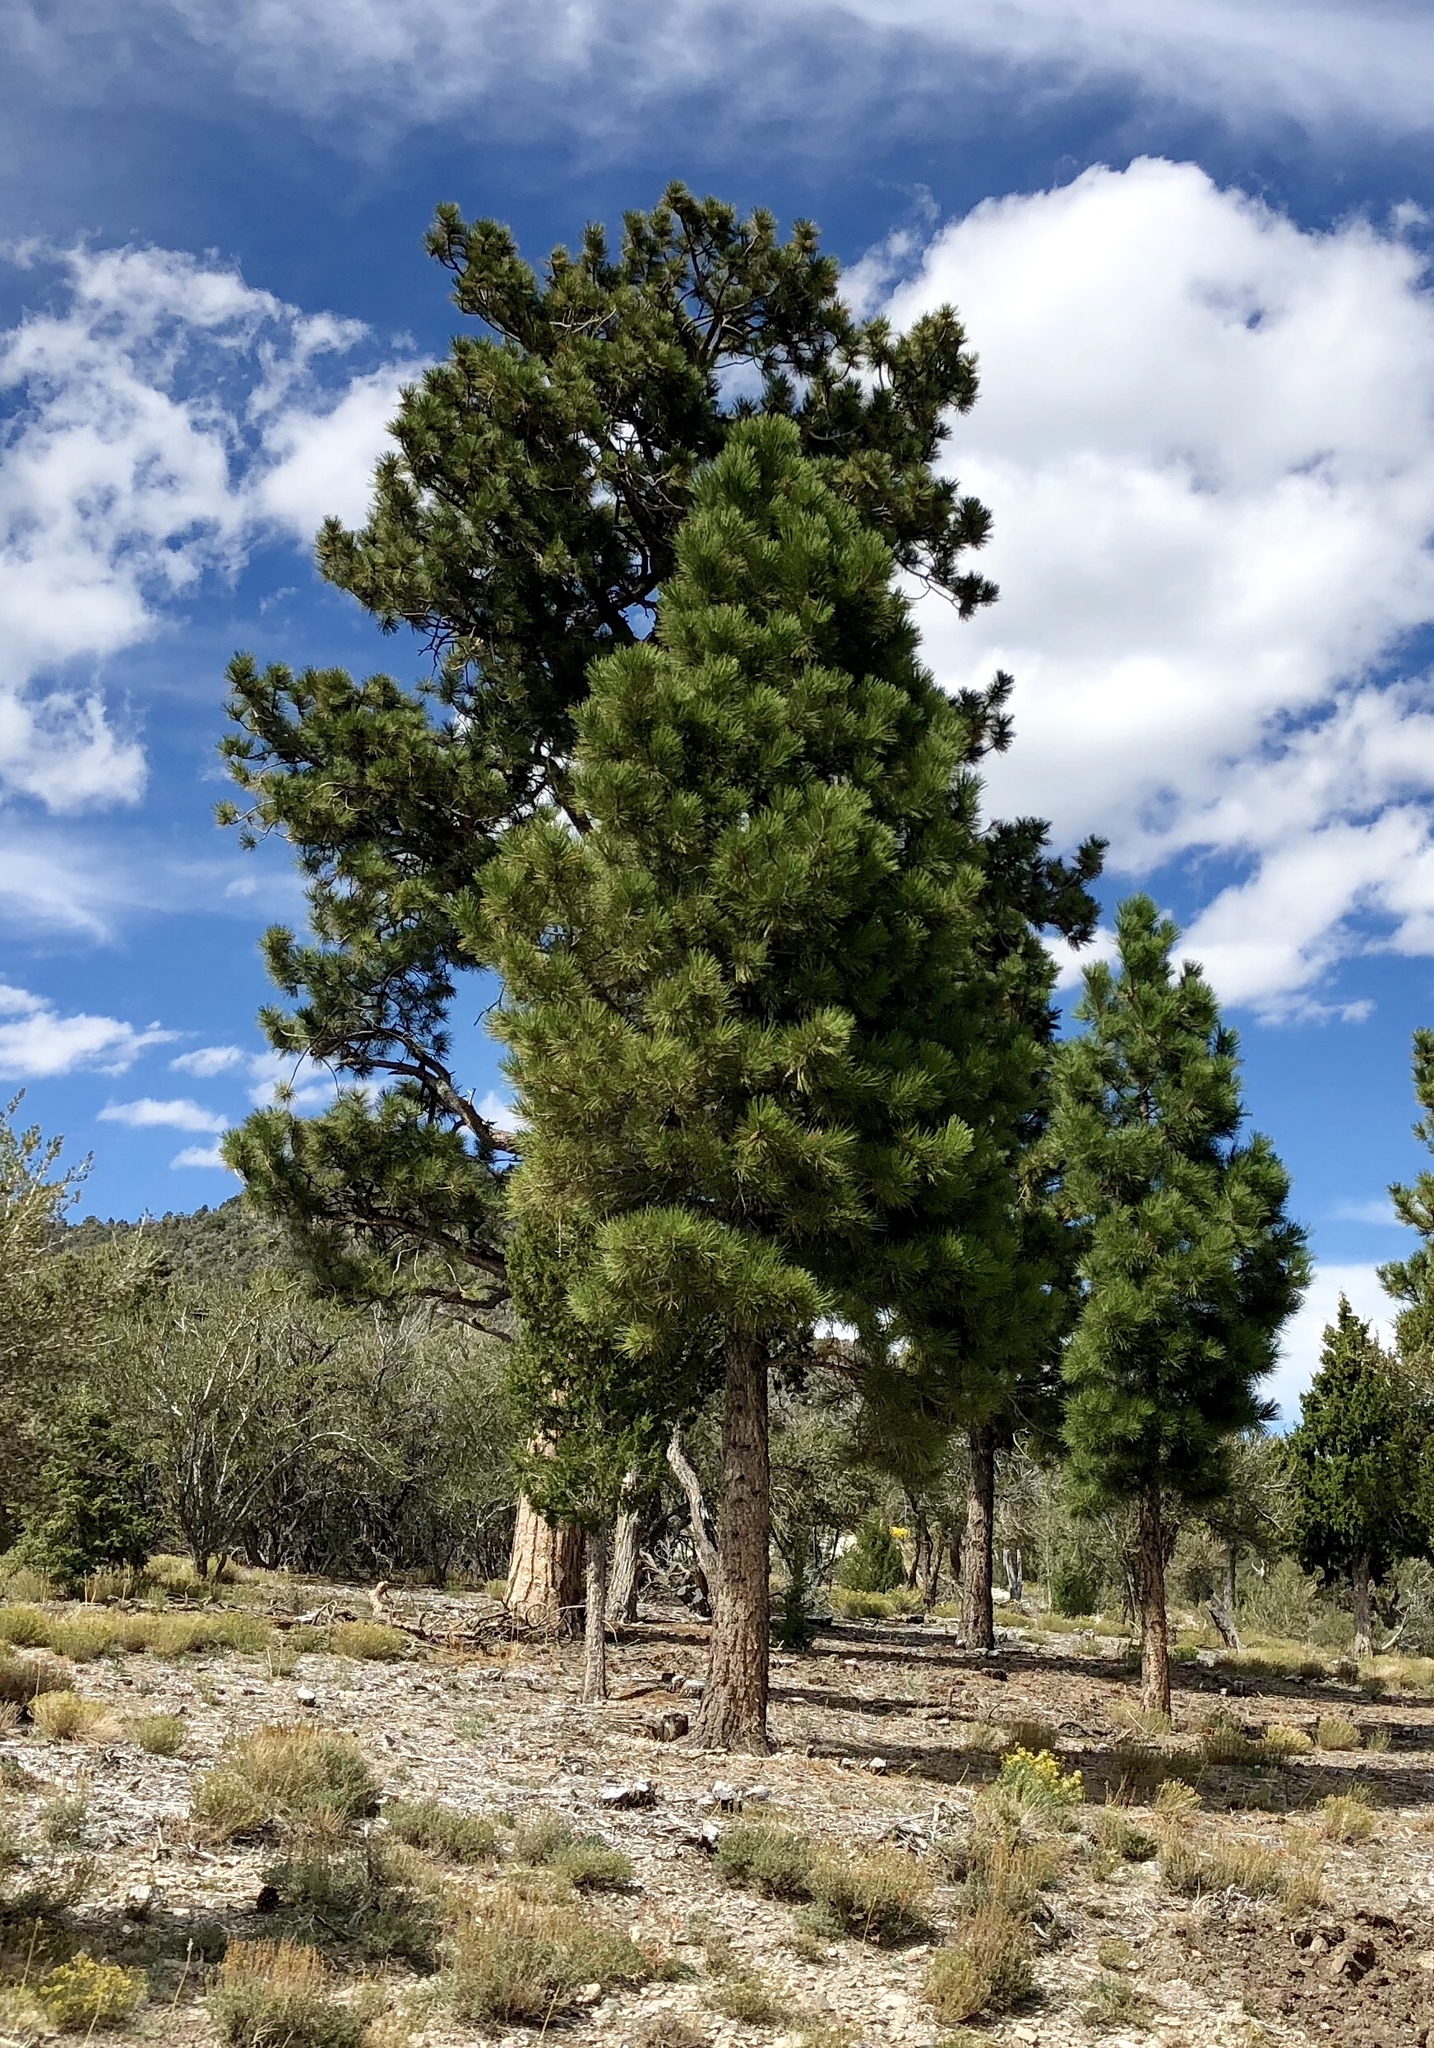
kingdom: Plantae
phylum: Tracheophyta
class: Pinopsida
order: Pinales
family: Pinaceae
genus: Pinus
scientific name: Pinus ponderosa
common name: Western yellow-pine
